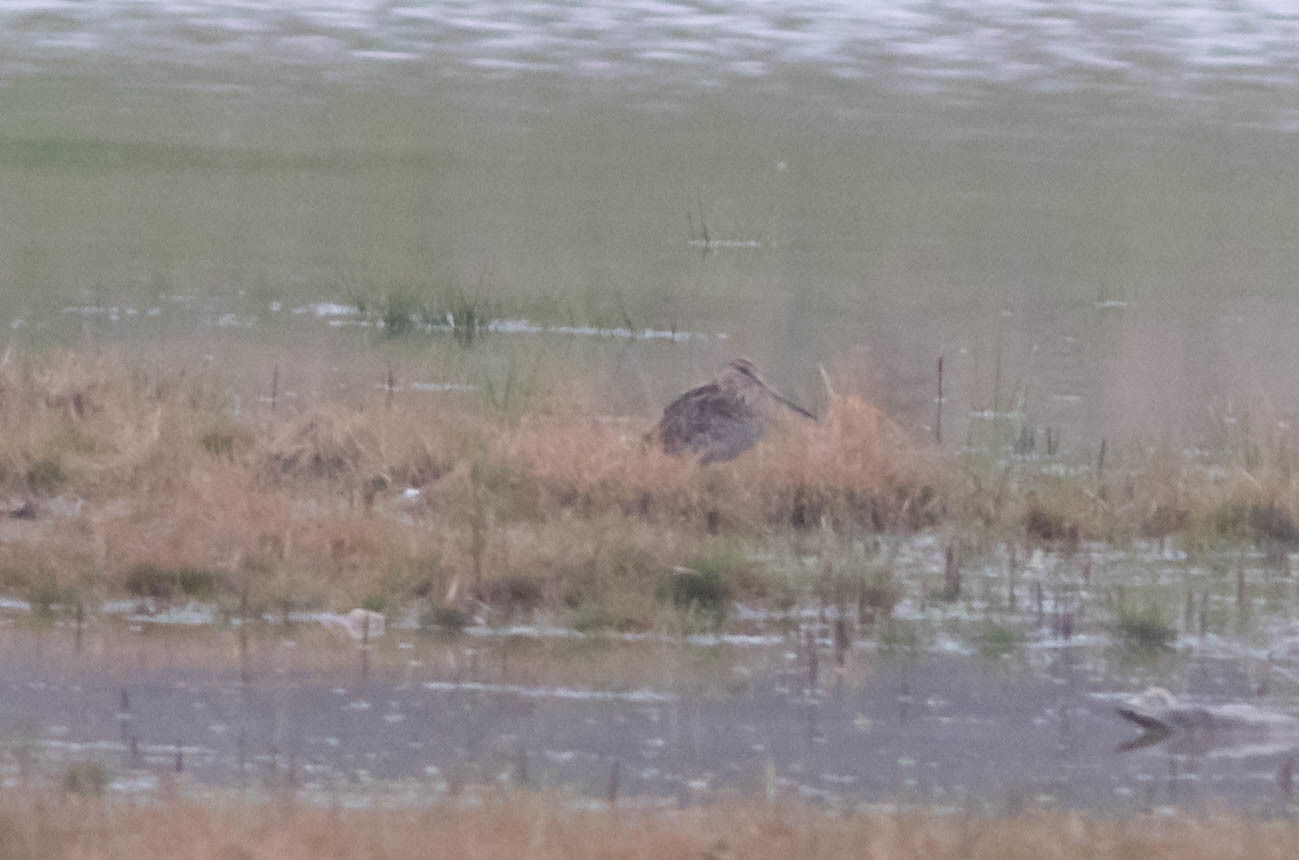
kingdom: Animalia
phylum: Chordata
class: Aves
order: Charadriiformes
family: Scolopacidae
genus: Gallinago
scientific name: Gallinago delicata
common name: Wilson's snipe
